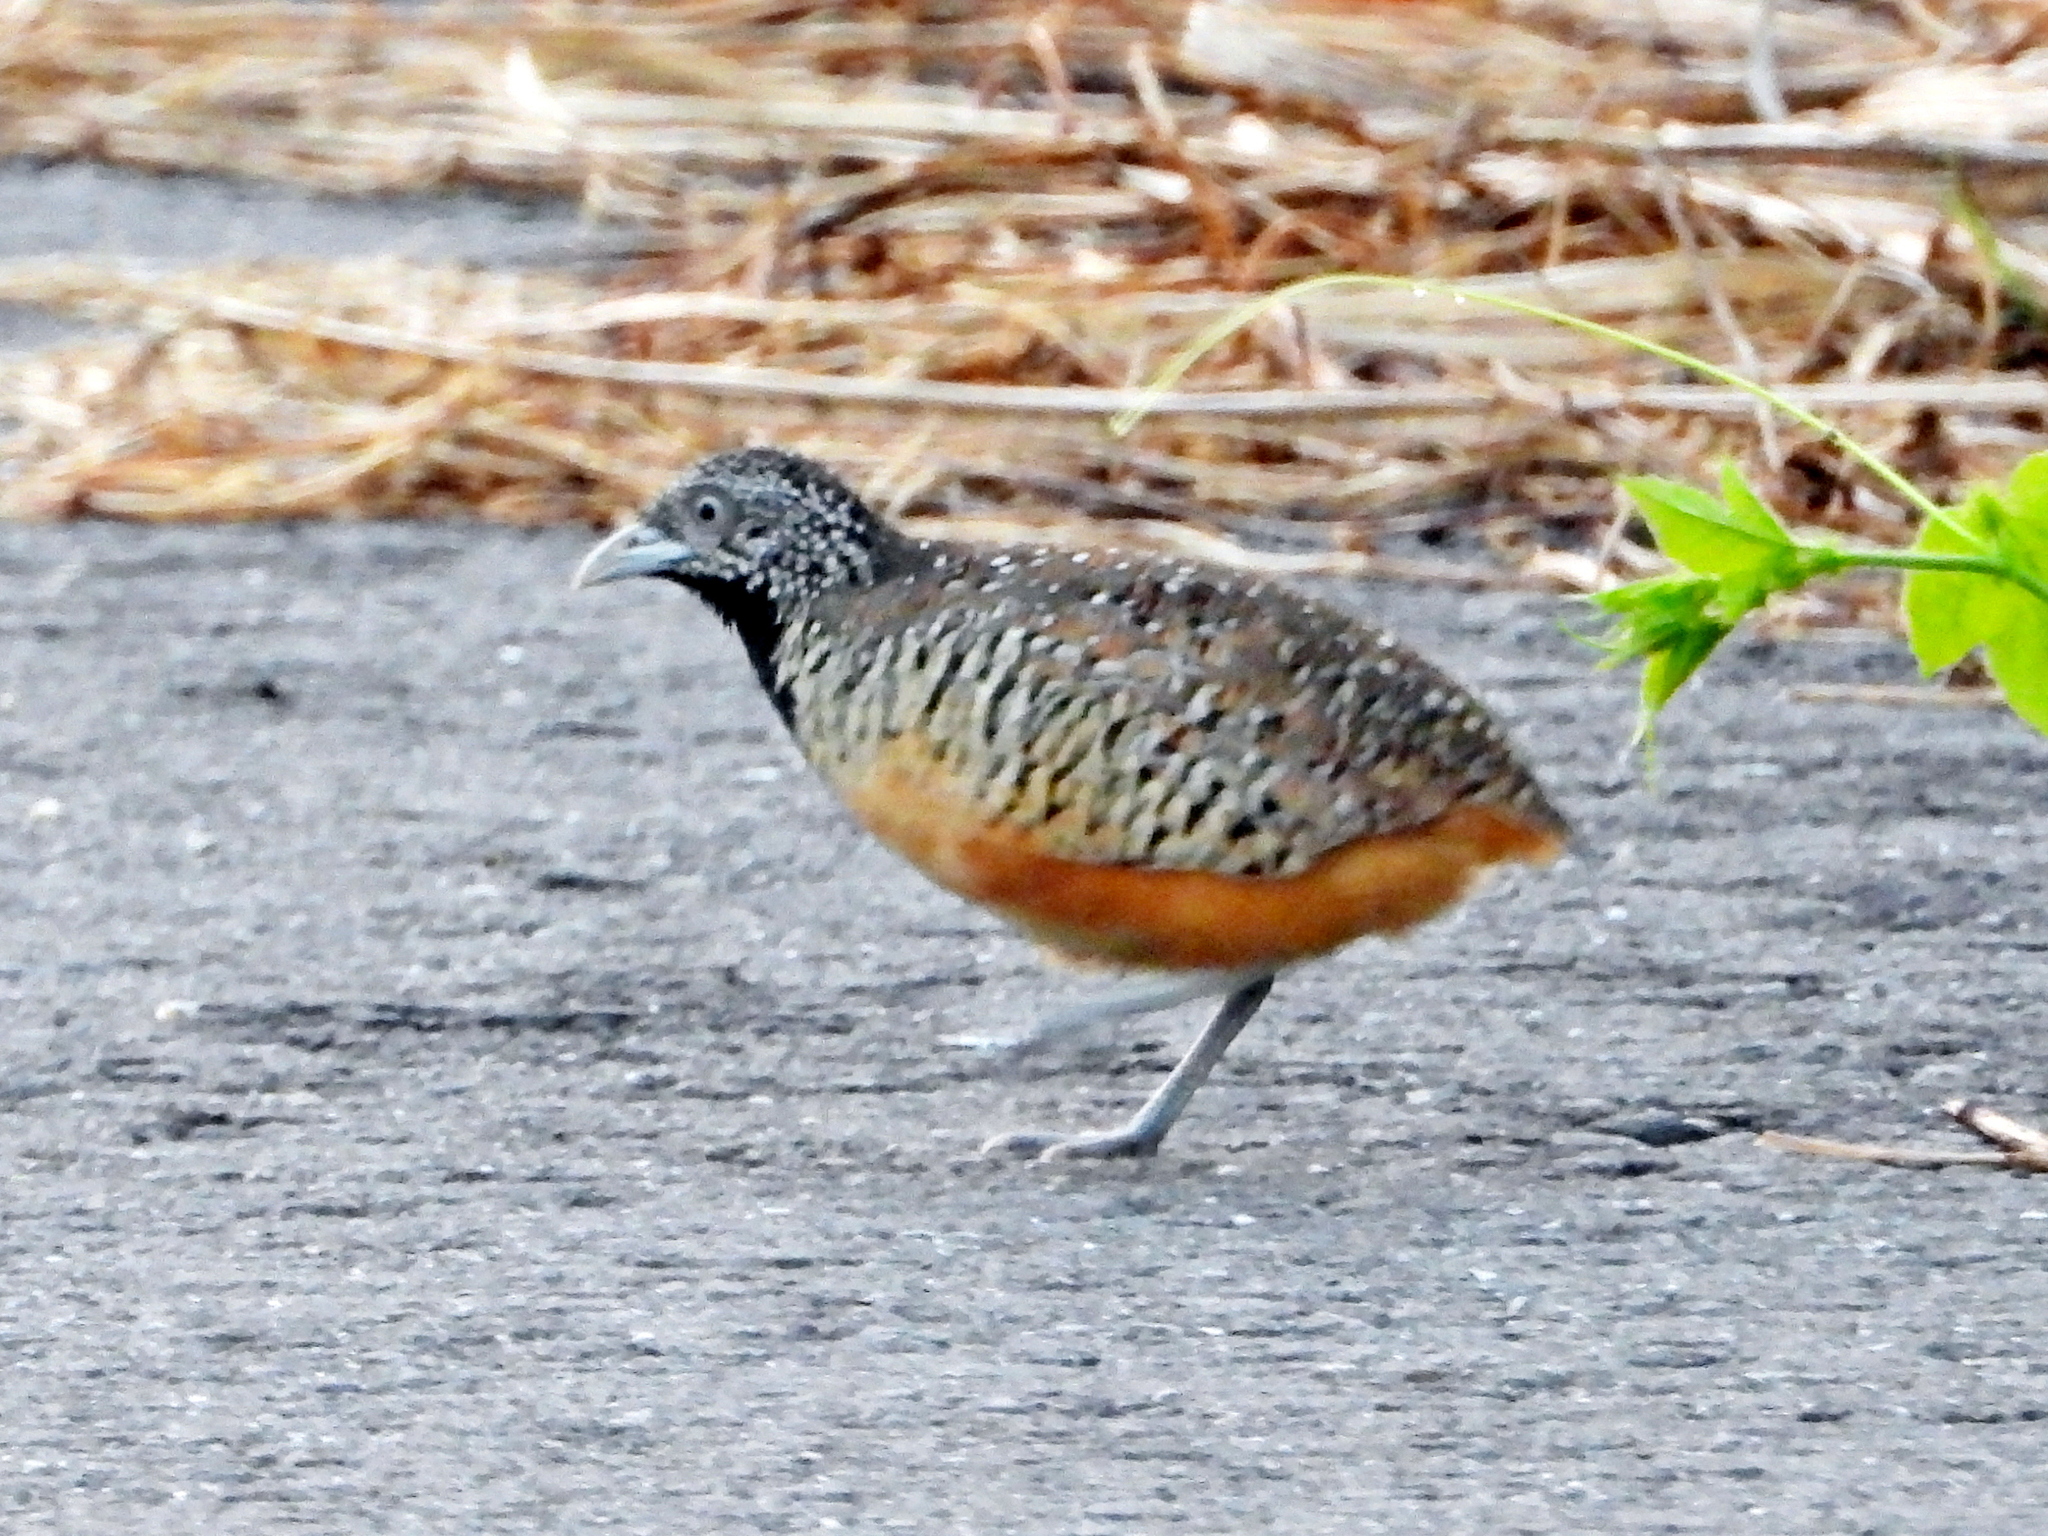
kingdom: Animalia
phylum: Chordata
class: Aves
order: Charadriiformes
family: Turnicidae
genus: Turnix
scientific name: Turnix suscitator
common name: Barred buttonquail
